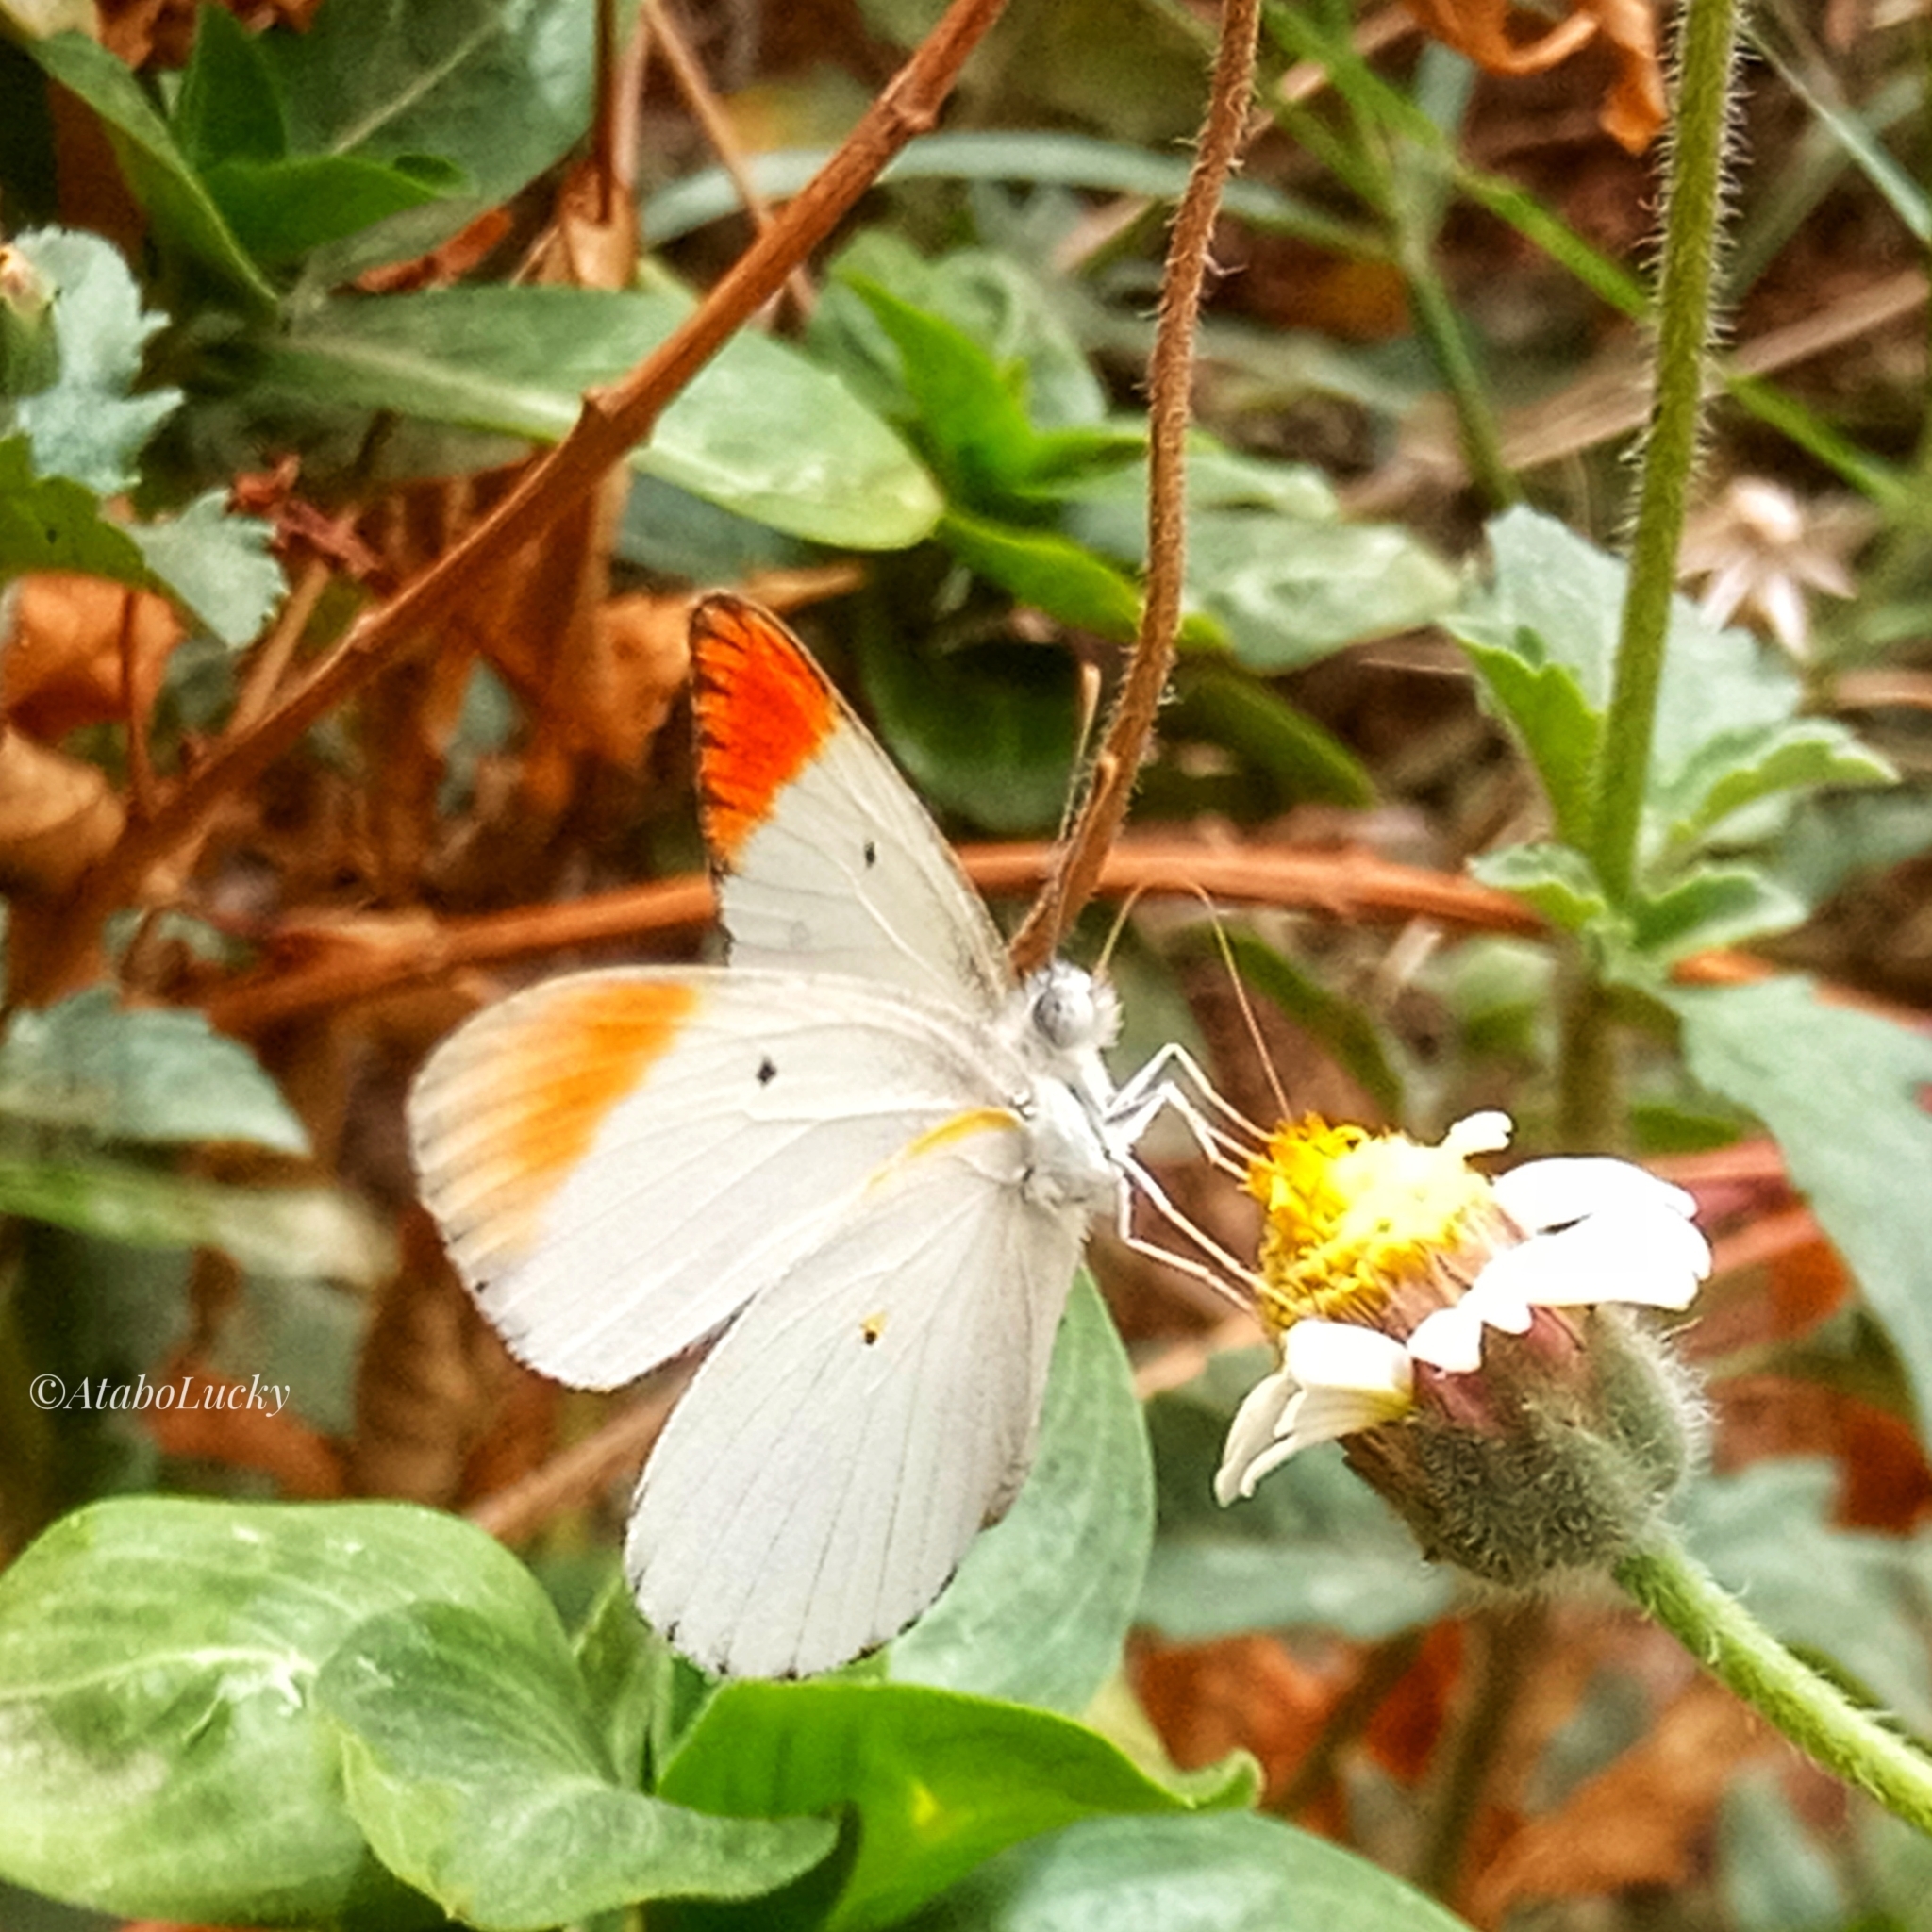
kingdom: Animalia
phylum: Arthropoda
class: Insecta
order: Lepidoptera
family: Pieridae
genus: Colotis
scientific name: Colotis antevippe
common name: Large orange tip
